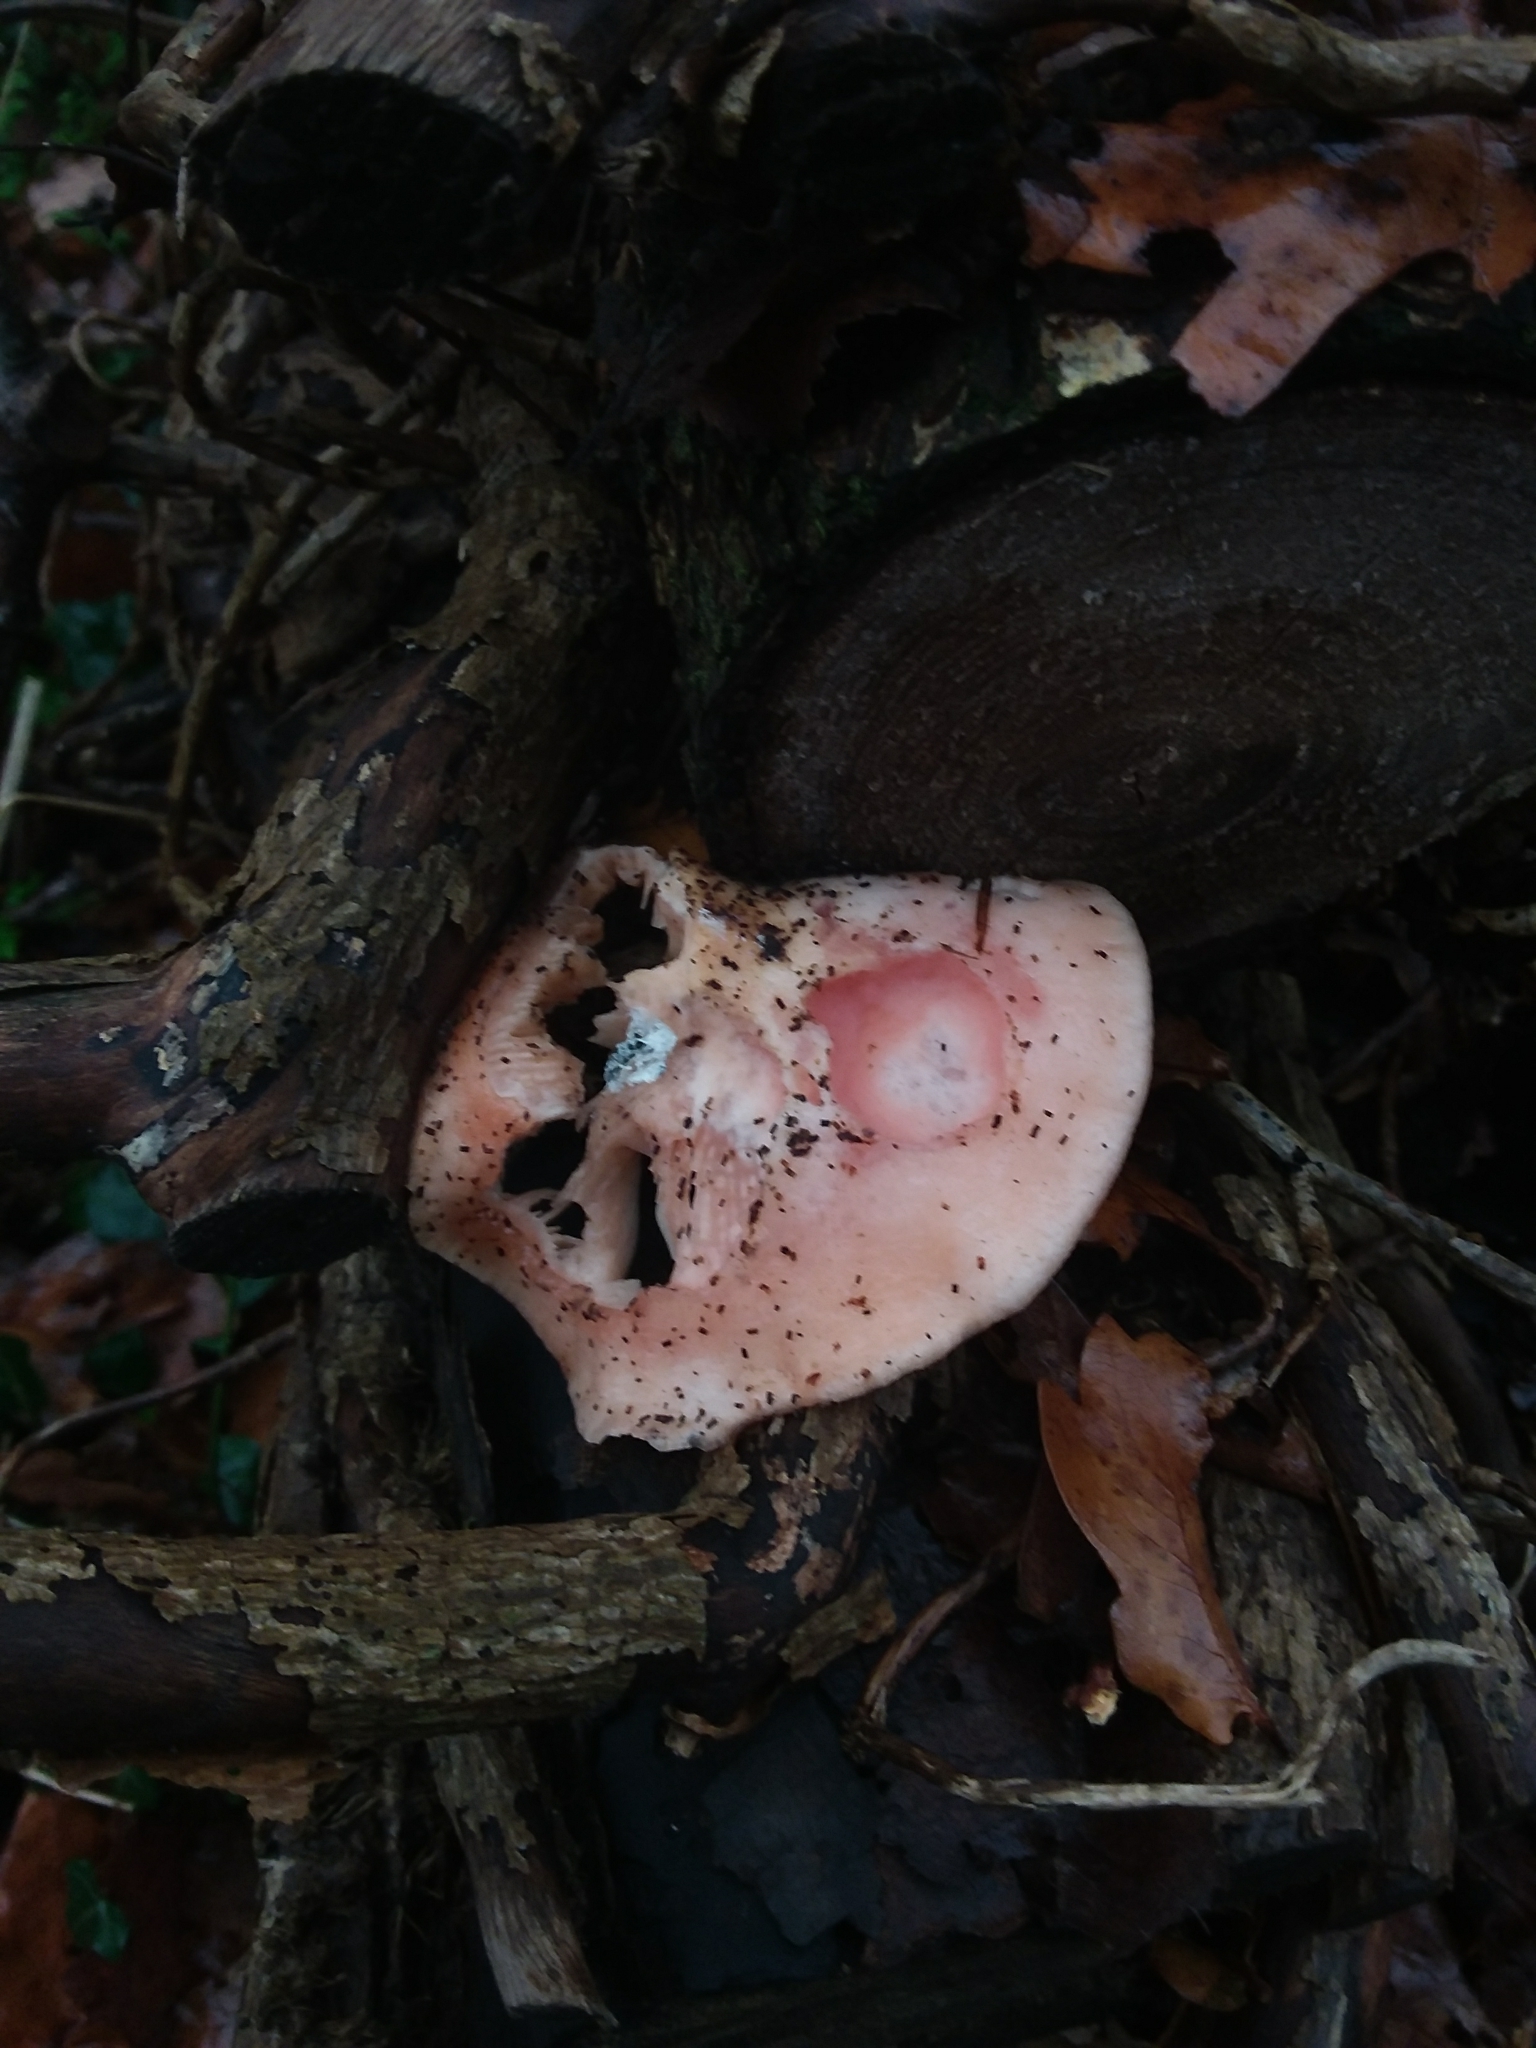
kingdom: Fungi
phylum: Basidiomycota
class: Agaricomycetes
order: Agaricales
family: Physalacriaceae
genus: Rhodotus
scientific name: Rhodotus palmatus
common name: Wrinkled peach
